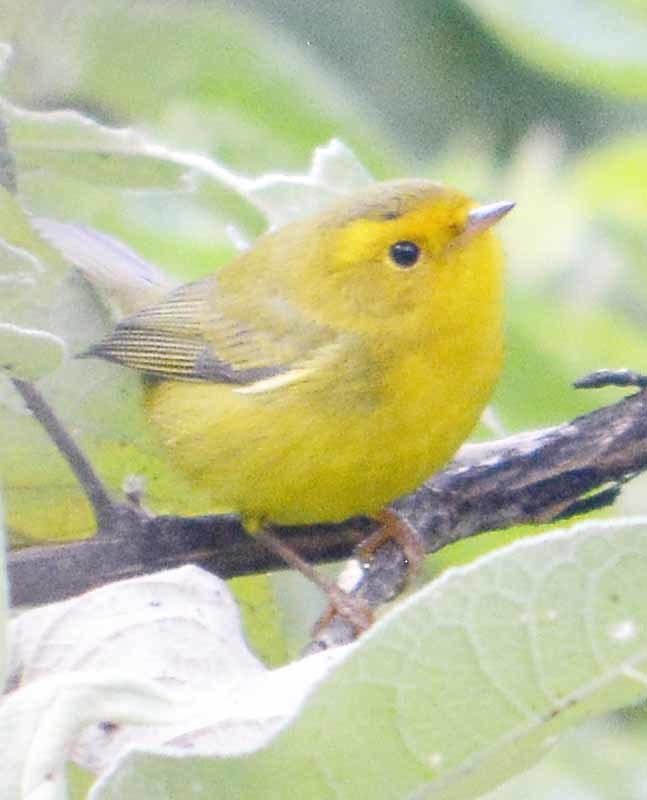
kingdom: Animalia
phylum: Chordata
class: Aves
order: Passeriformes
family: Parulidae
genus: Cardellina
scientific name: Cardellina pusilla
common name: Wilson's warbler
